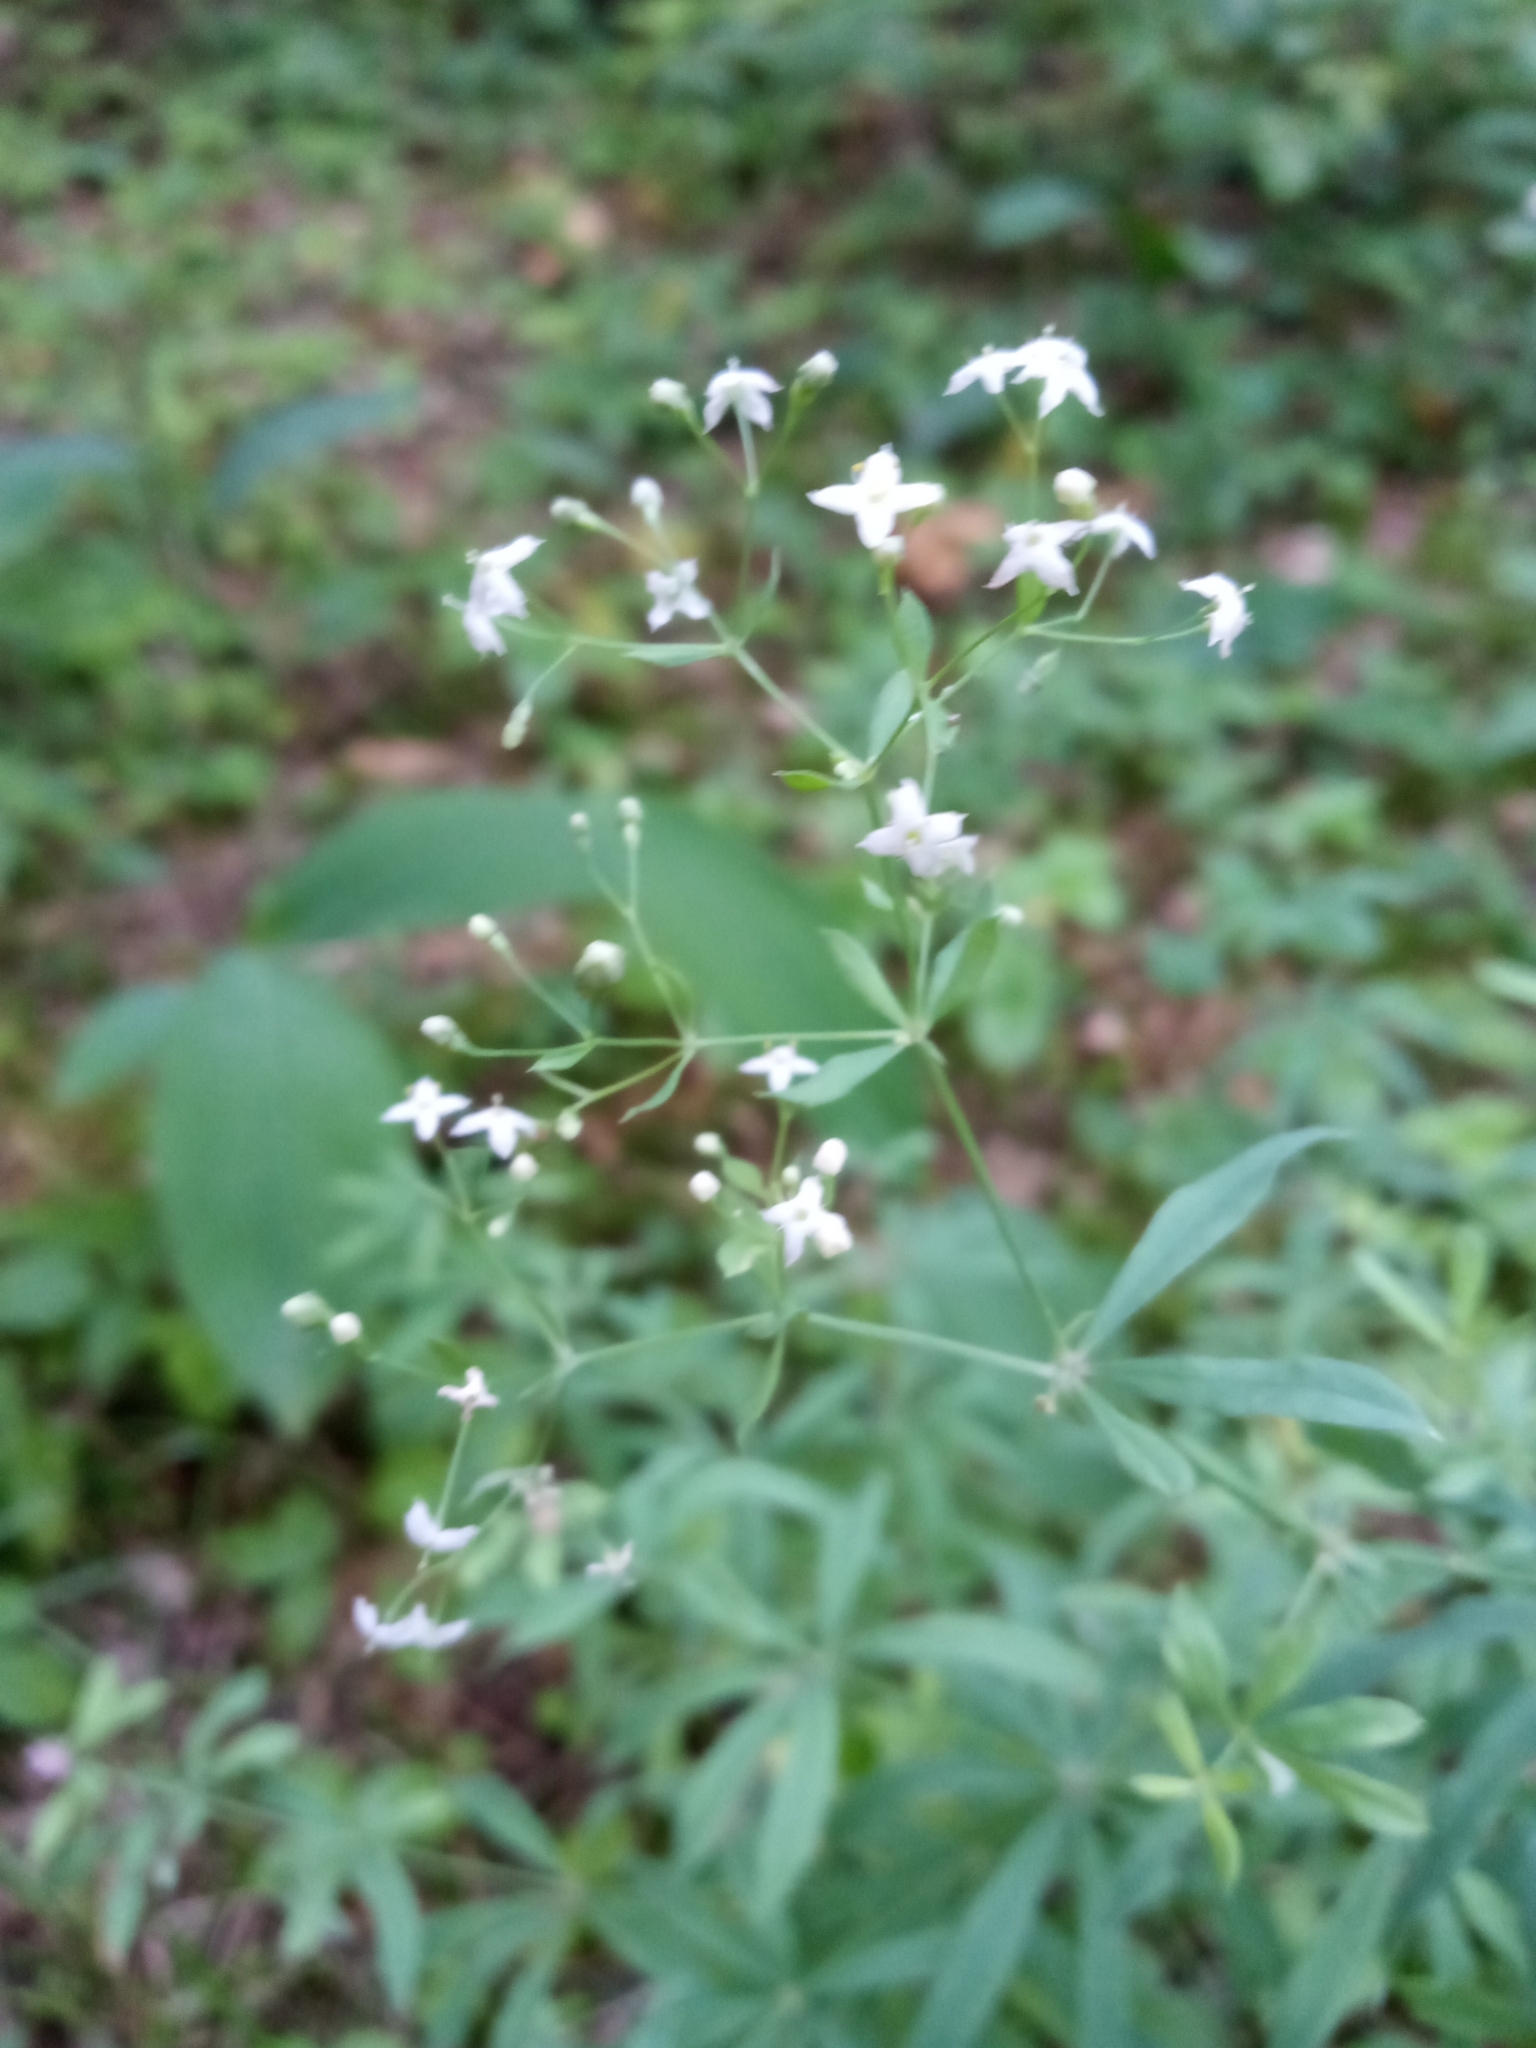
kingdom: Plantae
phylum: Tracheophyta
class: Magnoliopsida
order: Gentianales
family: Rubiaceae
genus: Galium
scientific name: Galium intermedium
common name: Bedstraw
